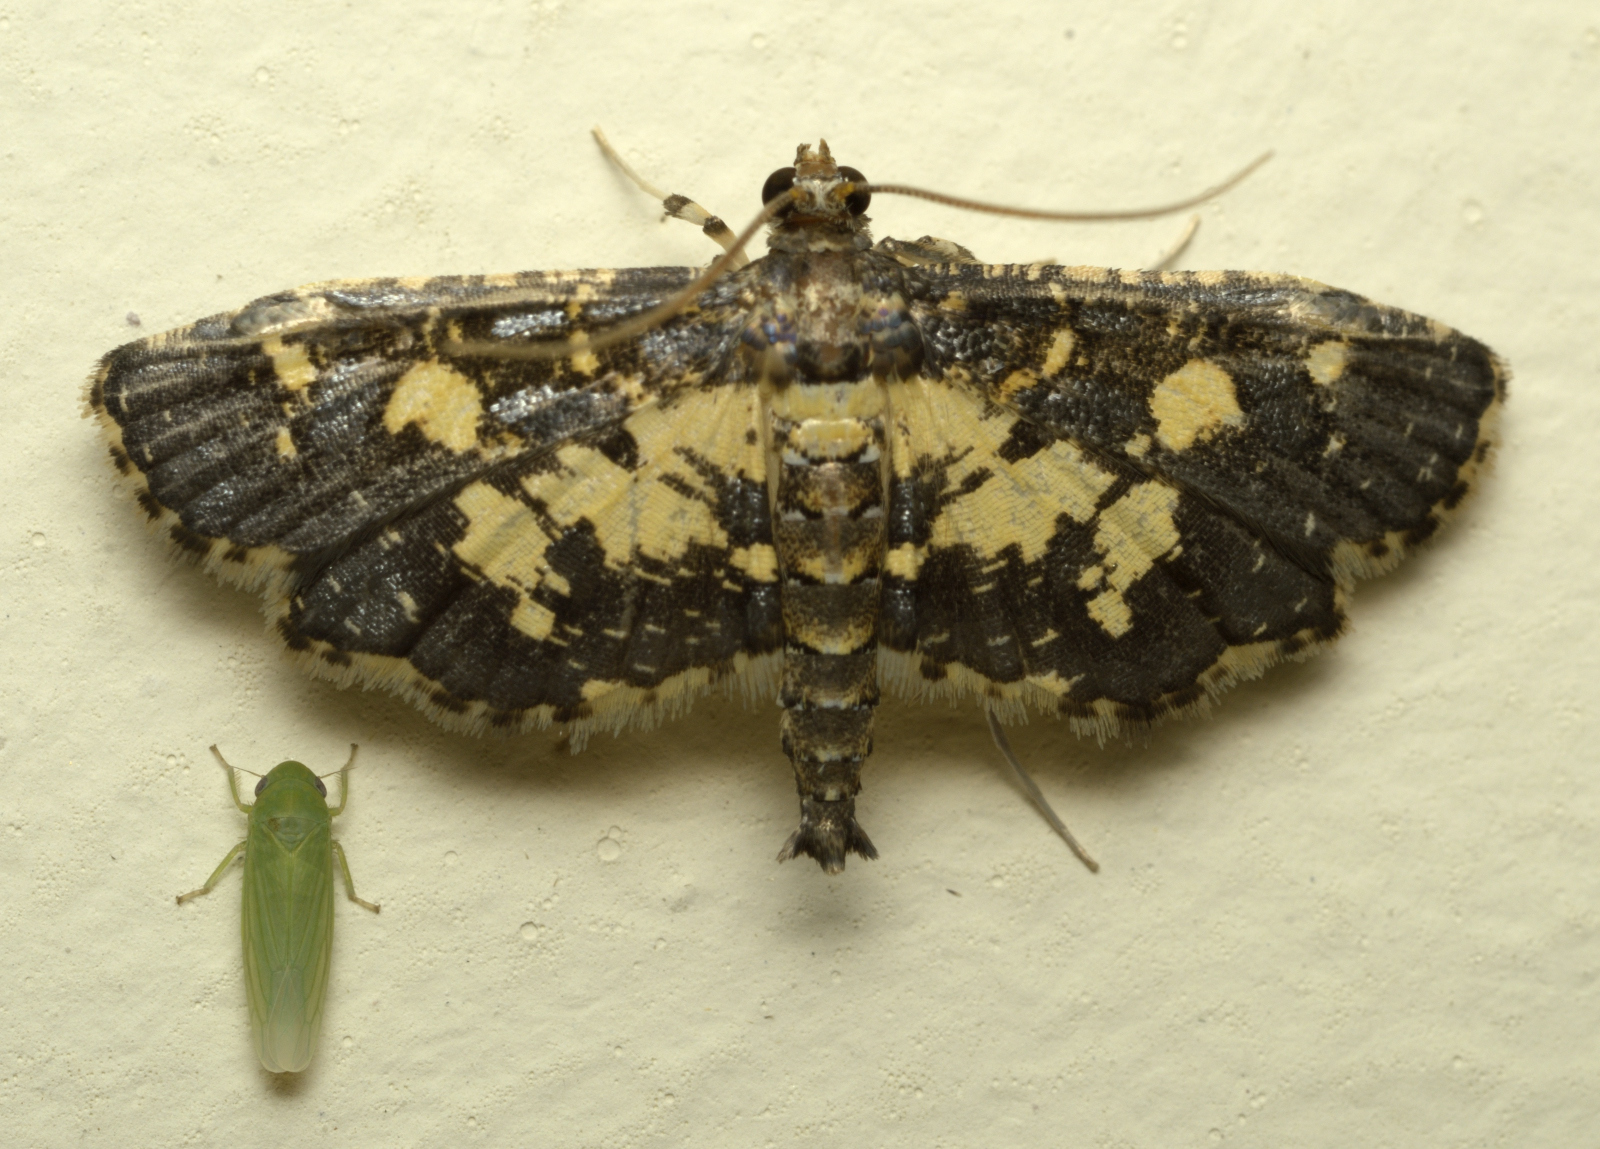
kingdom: Animalia
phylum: Arthropoda
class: Insecta
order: Lepidoptera
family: Crambidae
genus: Eurrhyparodes
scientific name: Eurrhyparodes bracteolalis
